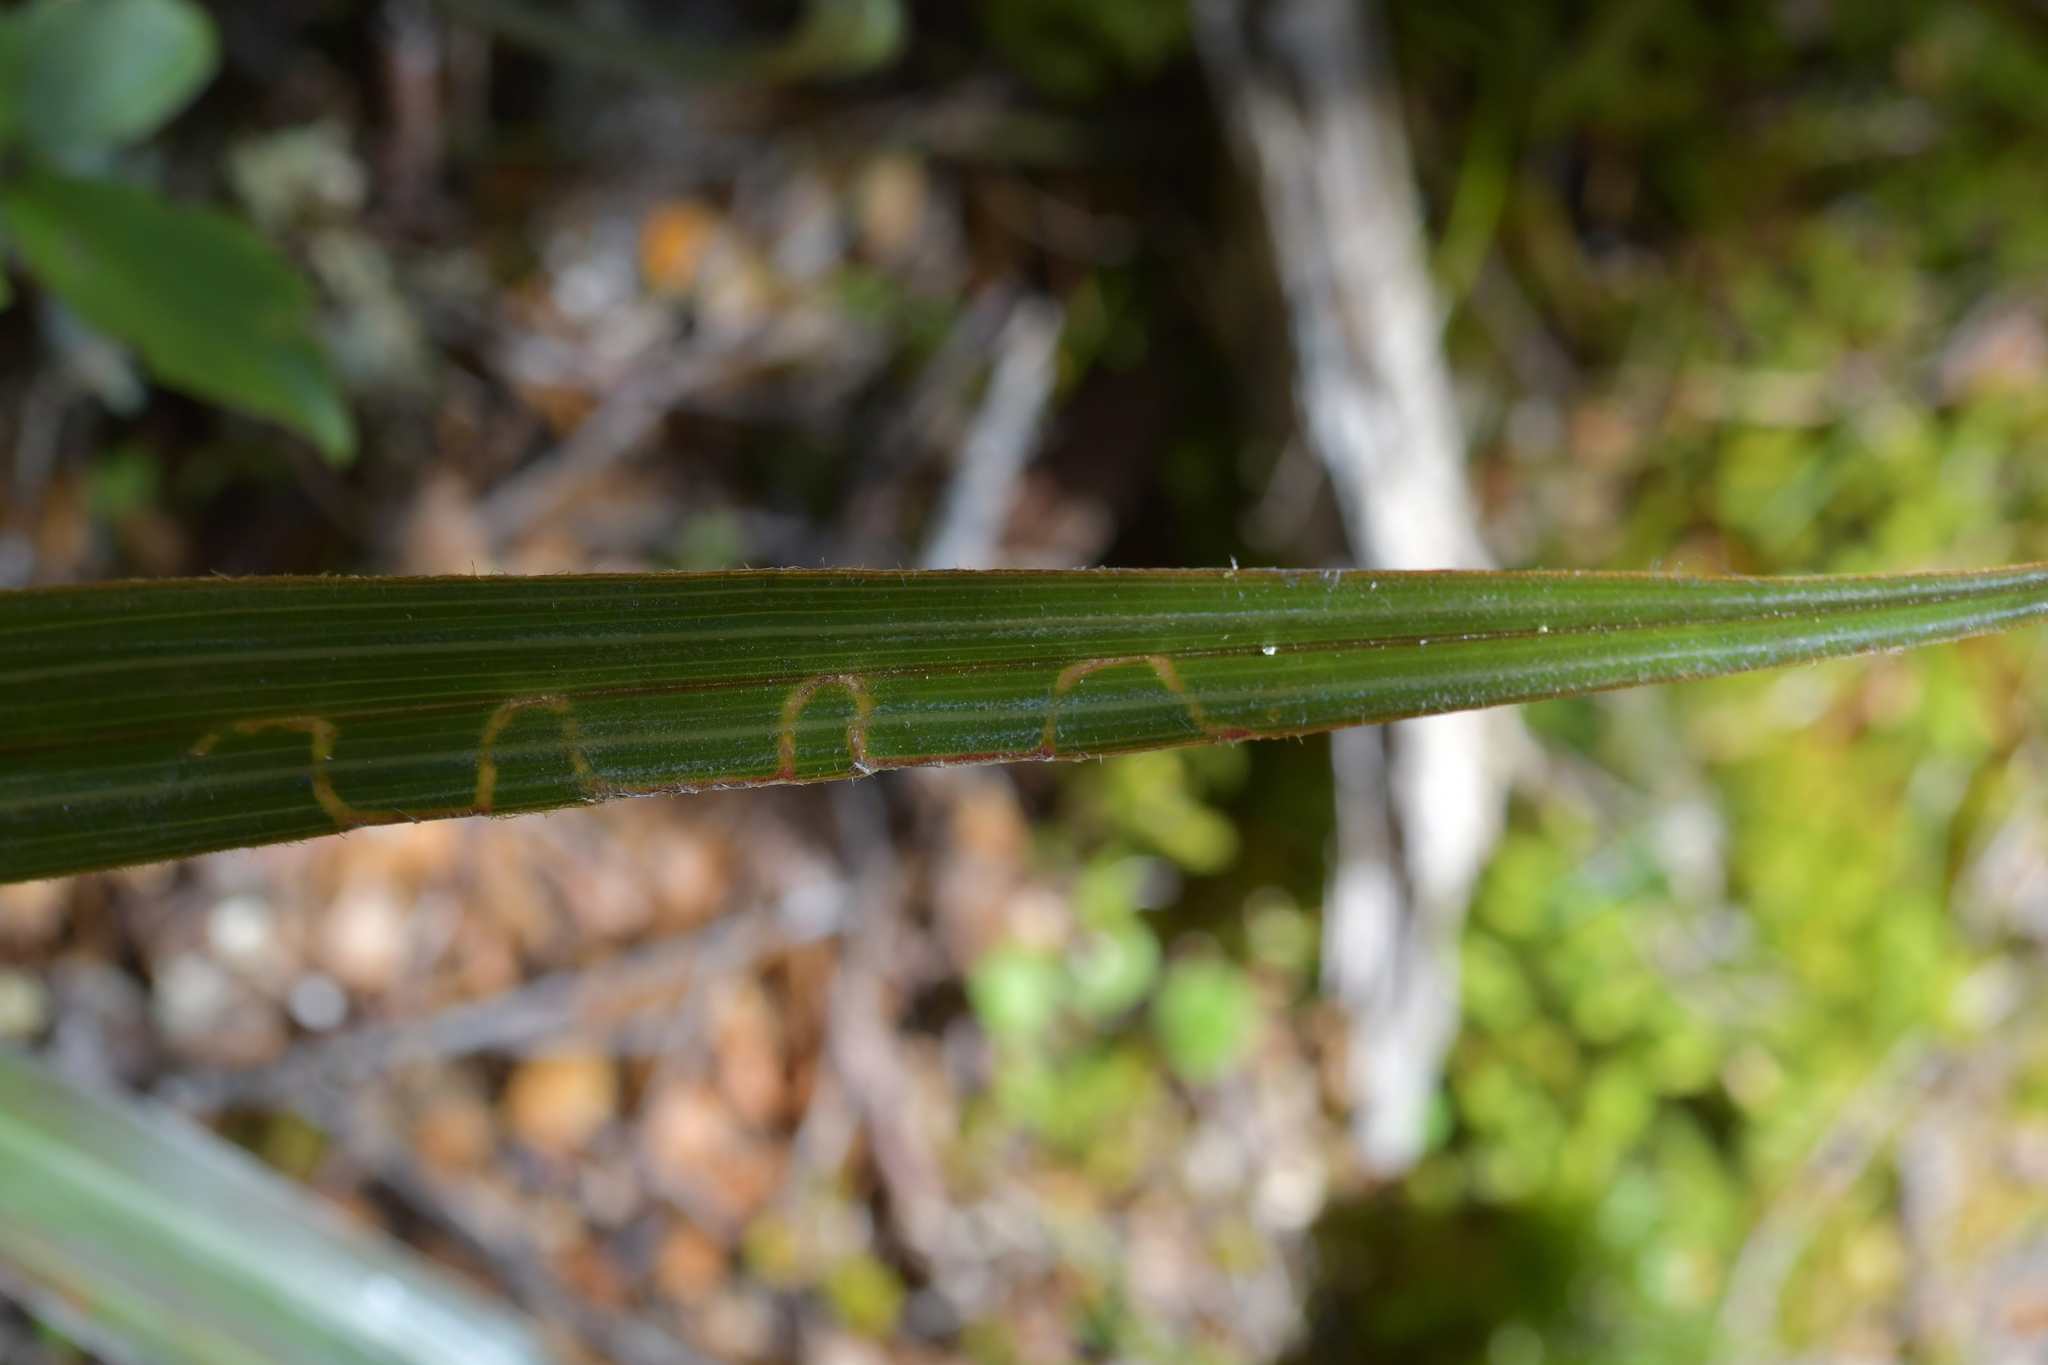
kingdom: Animalia
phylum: Arthropoda
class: Insecta
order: Lepidoptera
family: Plutellidae
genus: Charixena
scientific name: Charixena iridoxa
